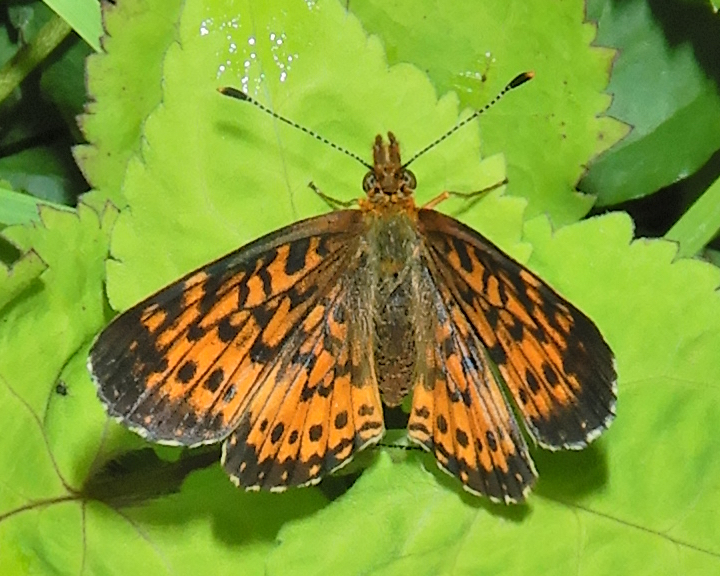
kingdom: Animalia
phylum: Arthropoda
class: Insecta
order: Lepidoptera
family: Nymphalidae
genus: Boloria
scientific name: Boloria
